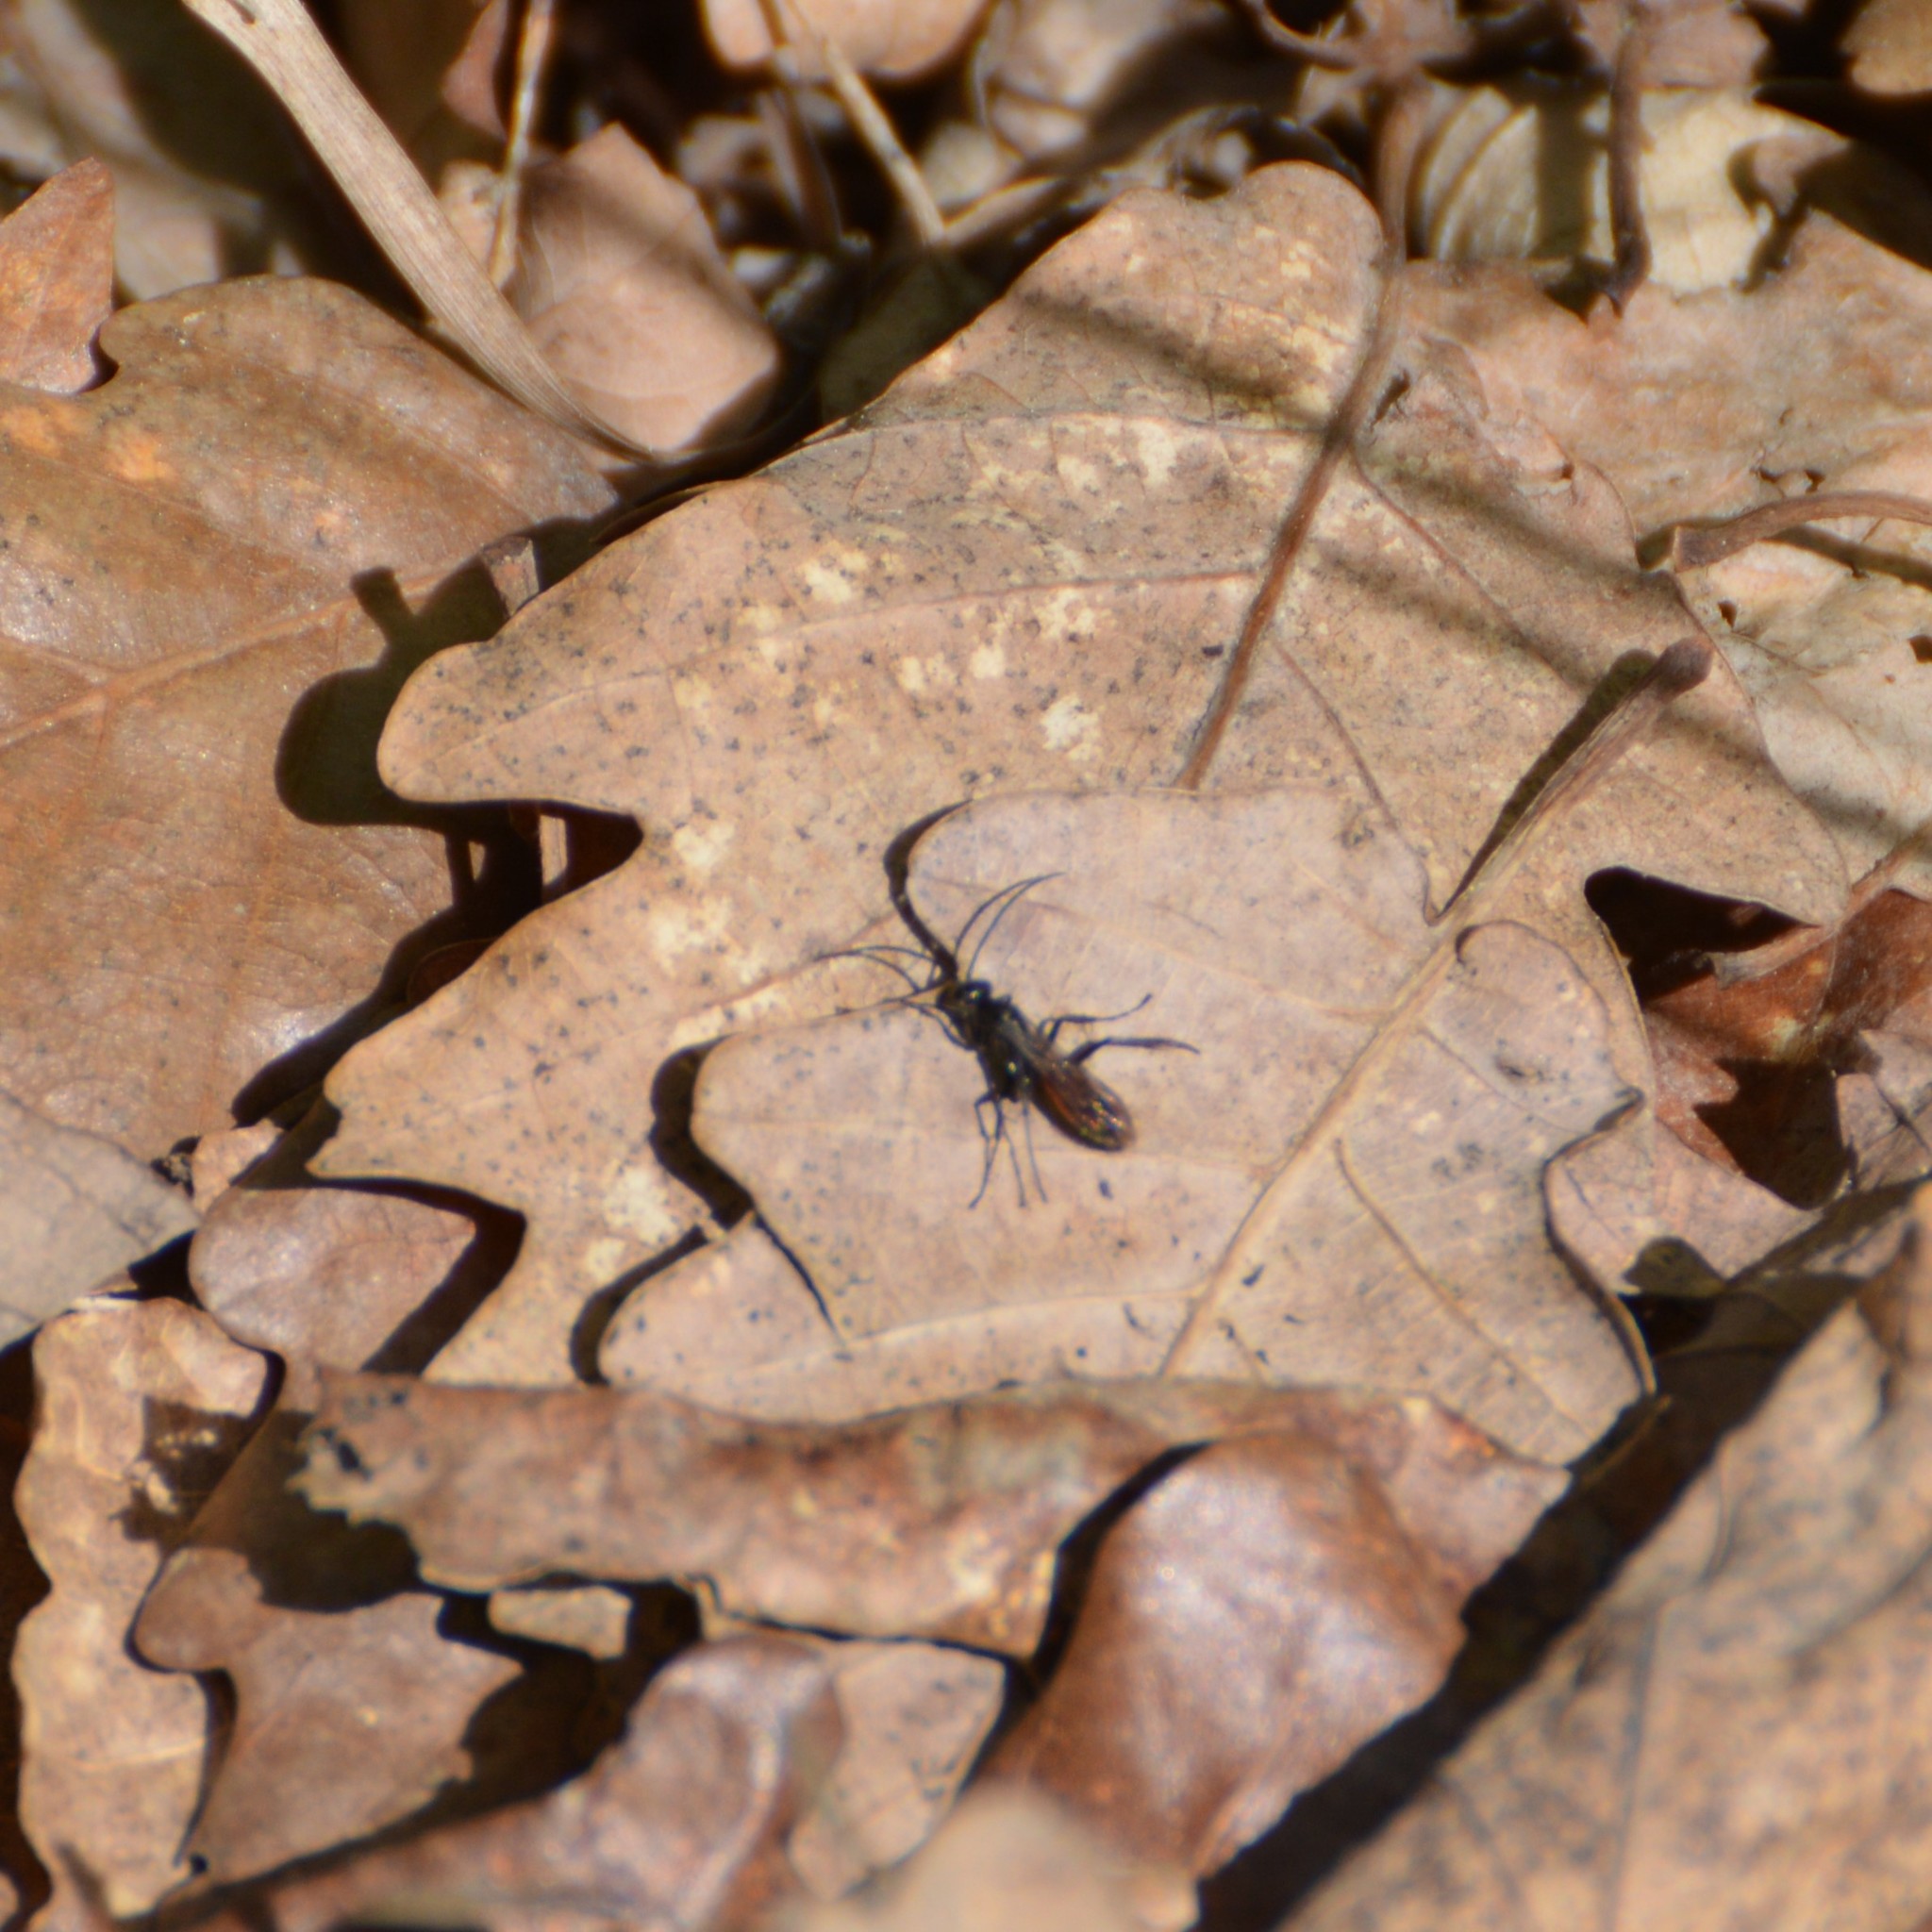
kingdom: Animalia
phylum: Arthropoda
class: Insecta
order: Hymenoptera
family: Pompilidae
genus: Priocnemis
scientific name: Priocnemis
